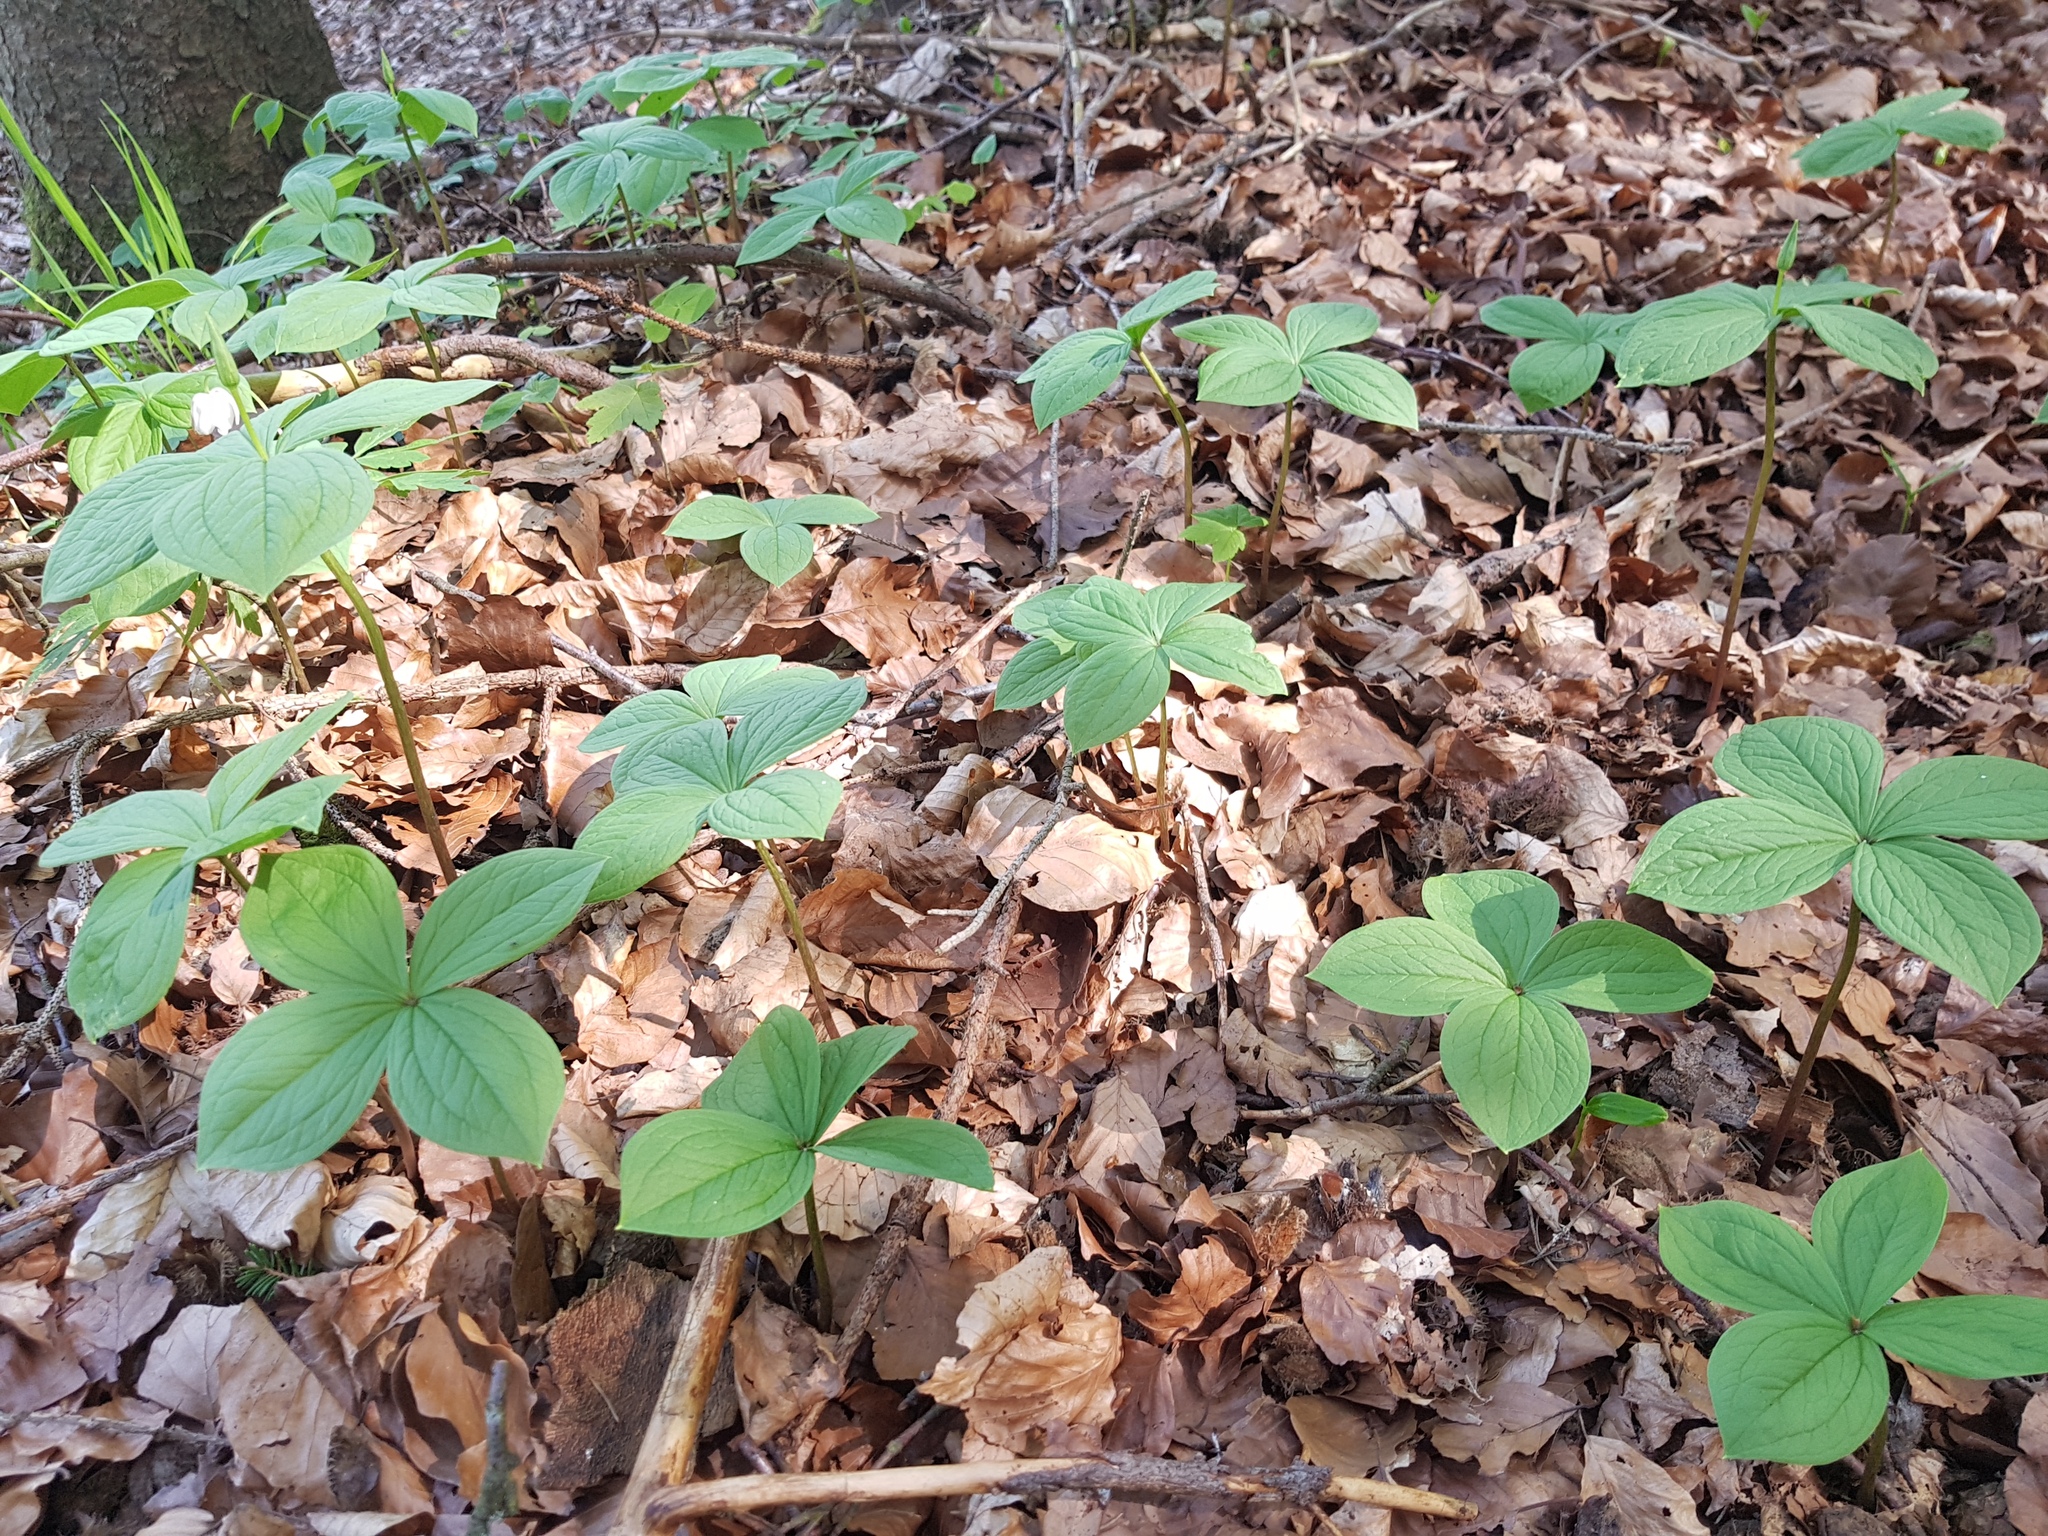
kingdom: Plantae
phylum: Tracheophyta
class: Liliopsida
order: Liliales
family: Melanthiaceae
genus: Paris
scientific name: Paris quadrifolia
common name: Herb-paris
